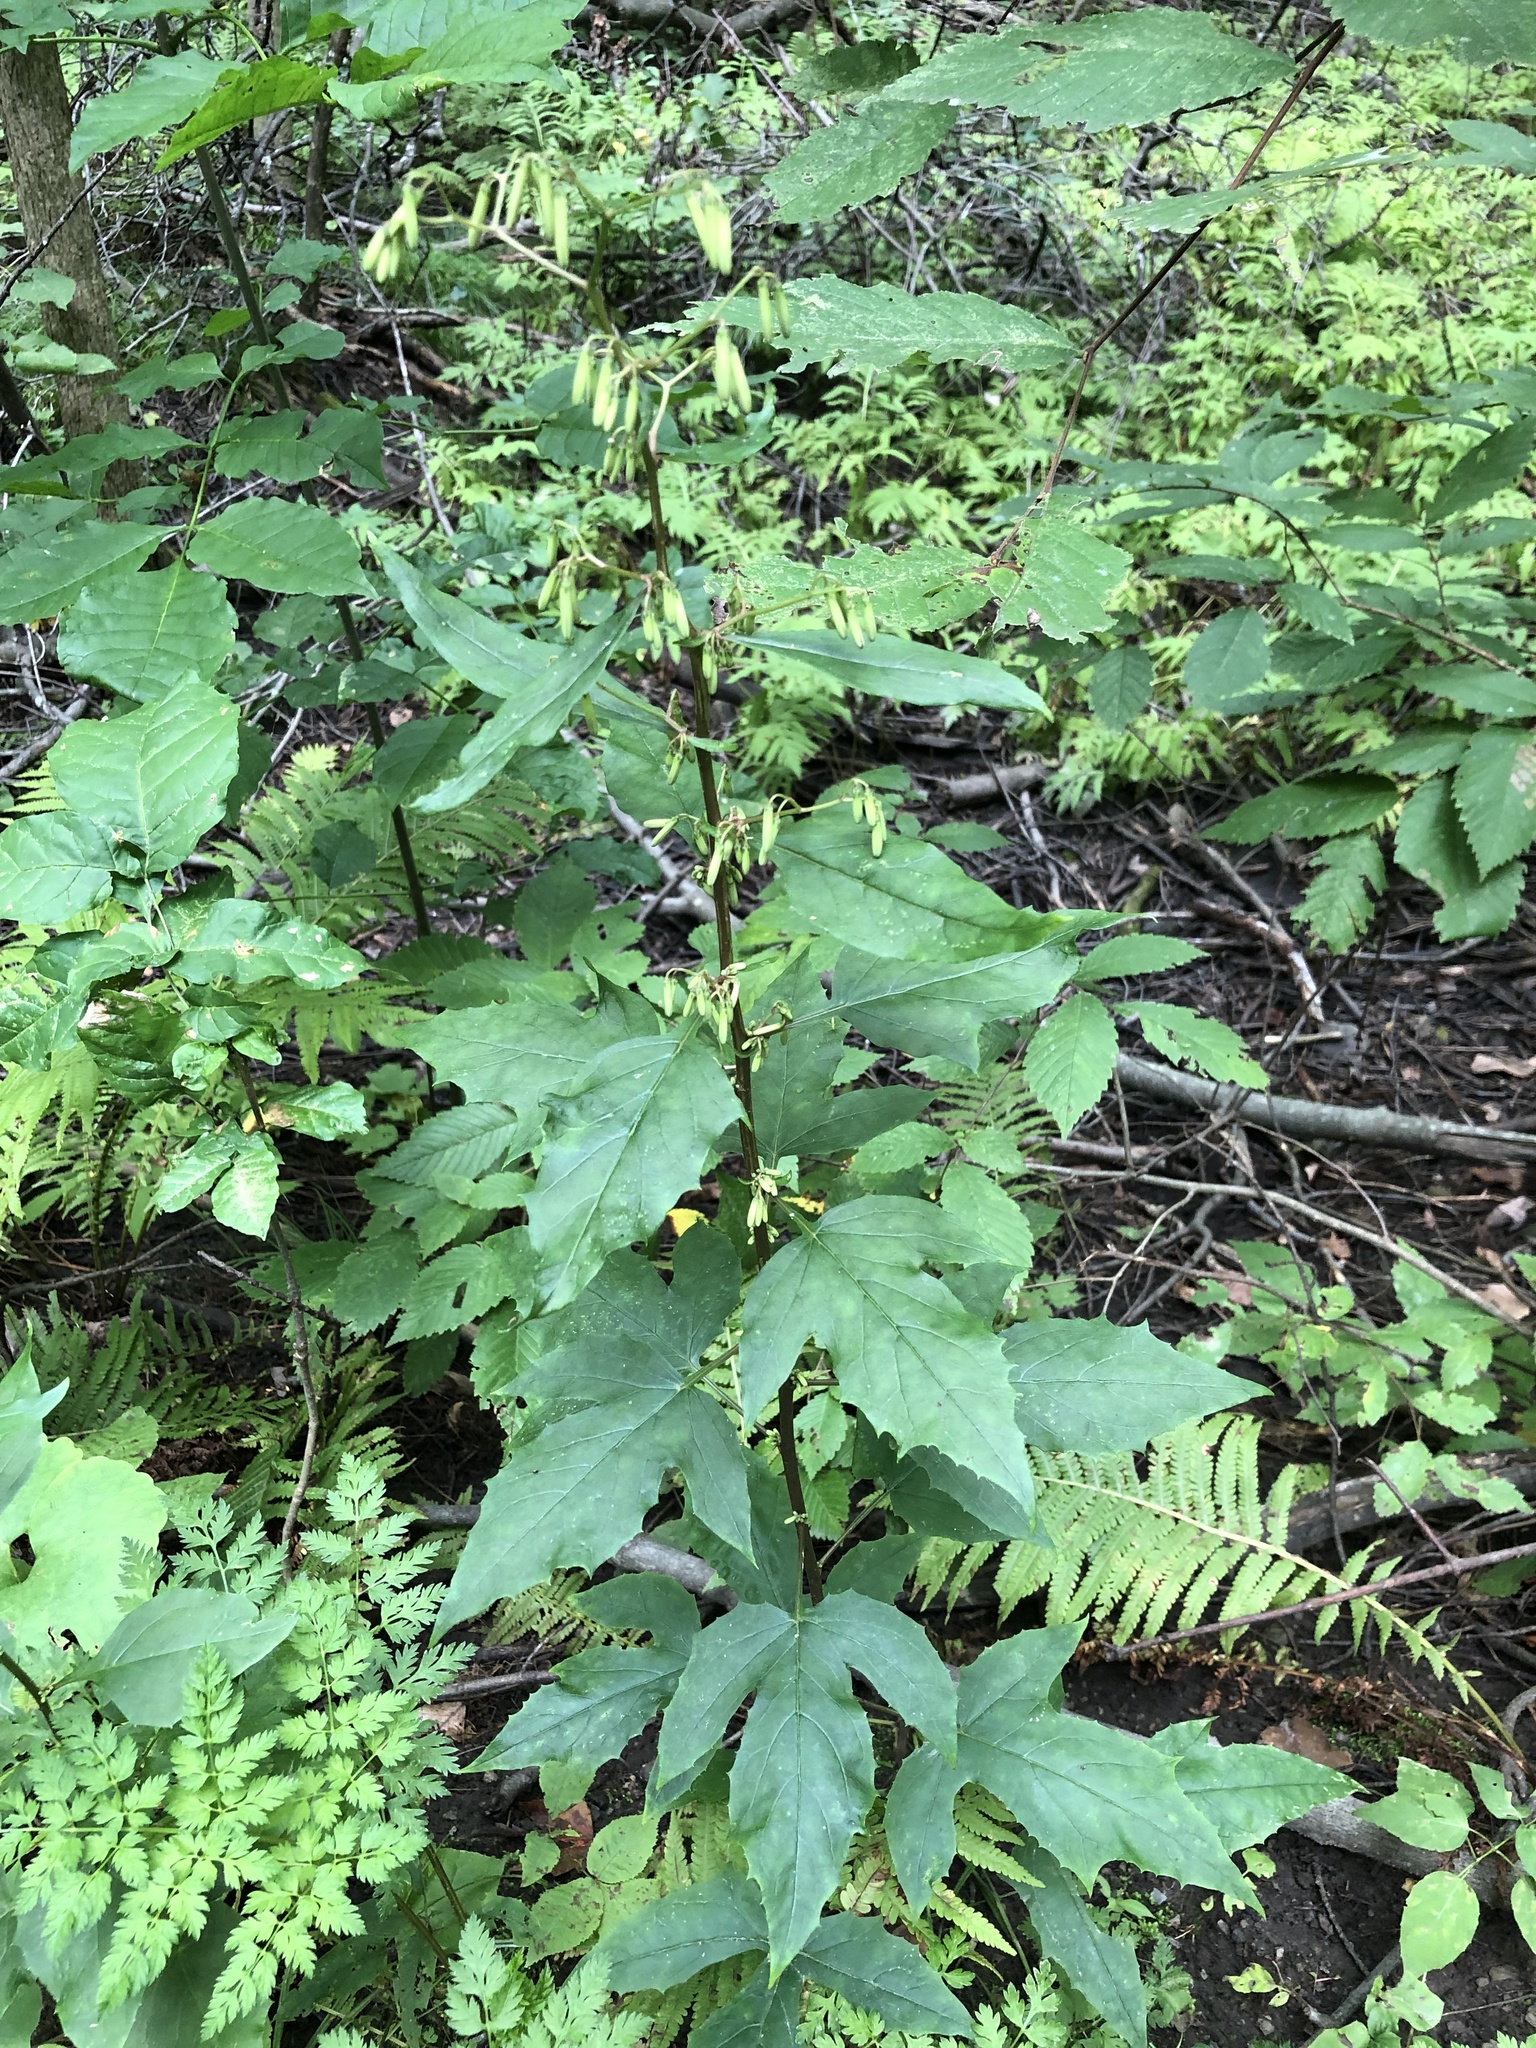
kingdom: Plantae
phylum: Tracheophyta
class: Magnoliopsida
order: Asterales
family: Asteraceae
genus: Nabalus
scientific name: Nabalus altissima
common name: Tall rattlesnakeroot
